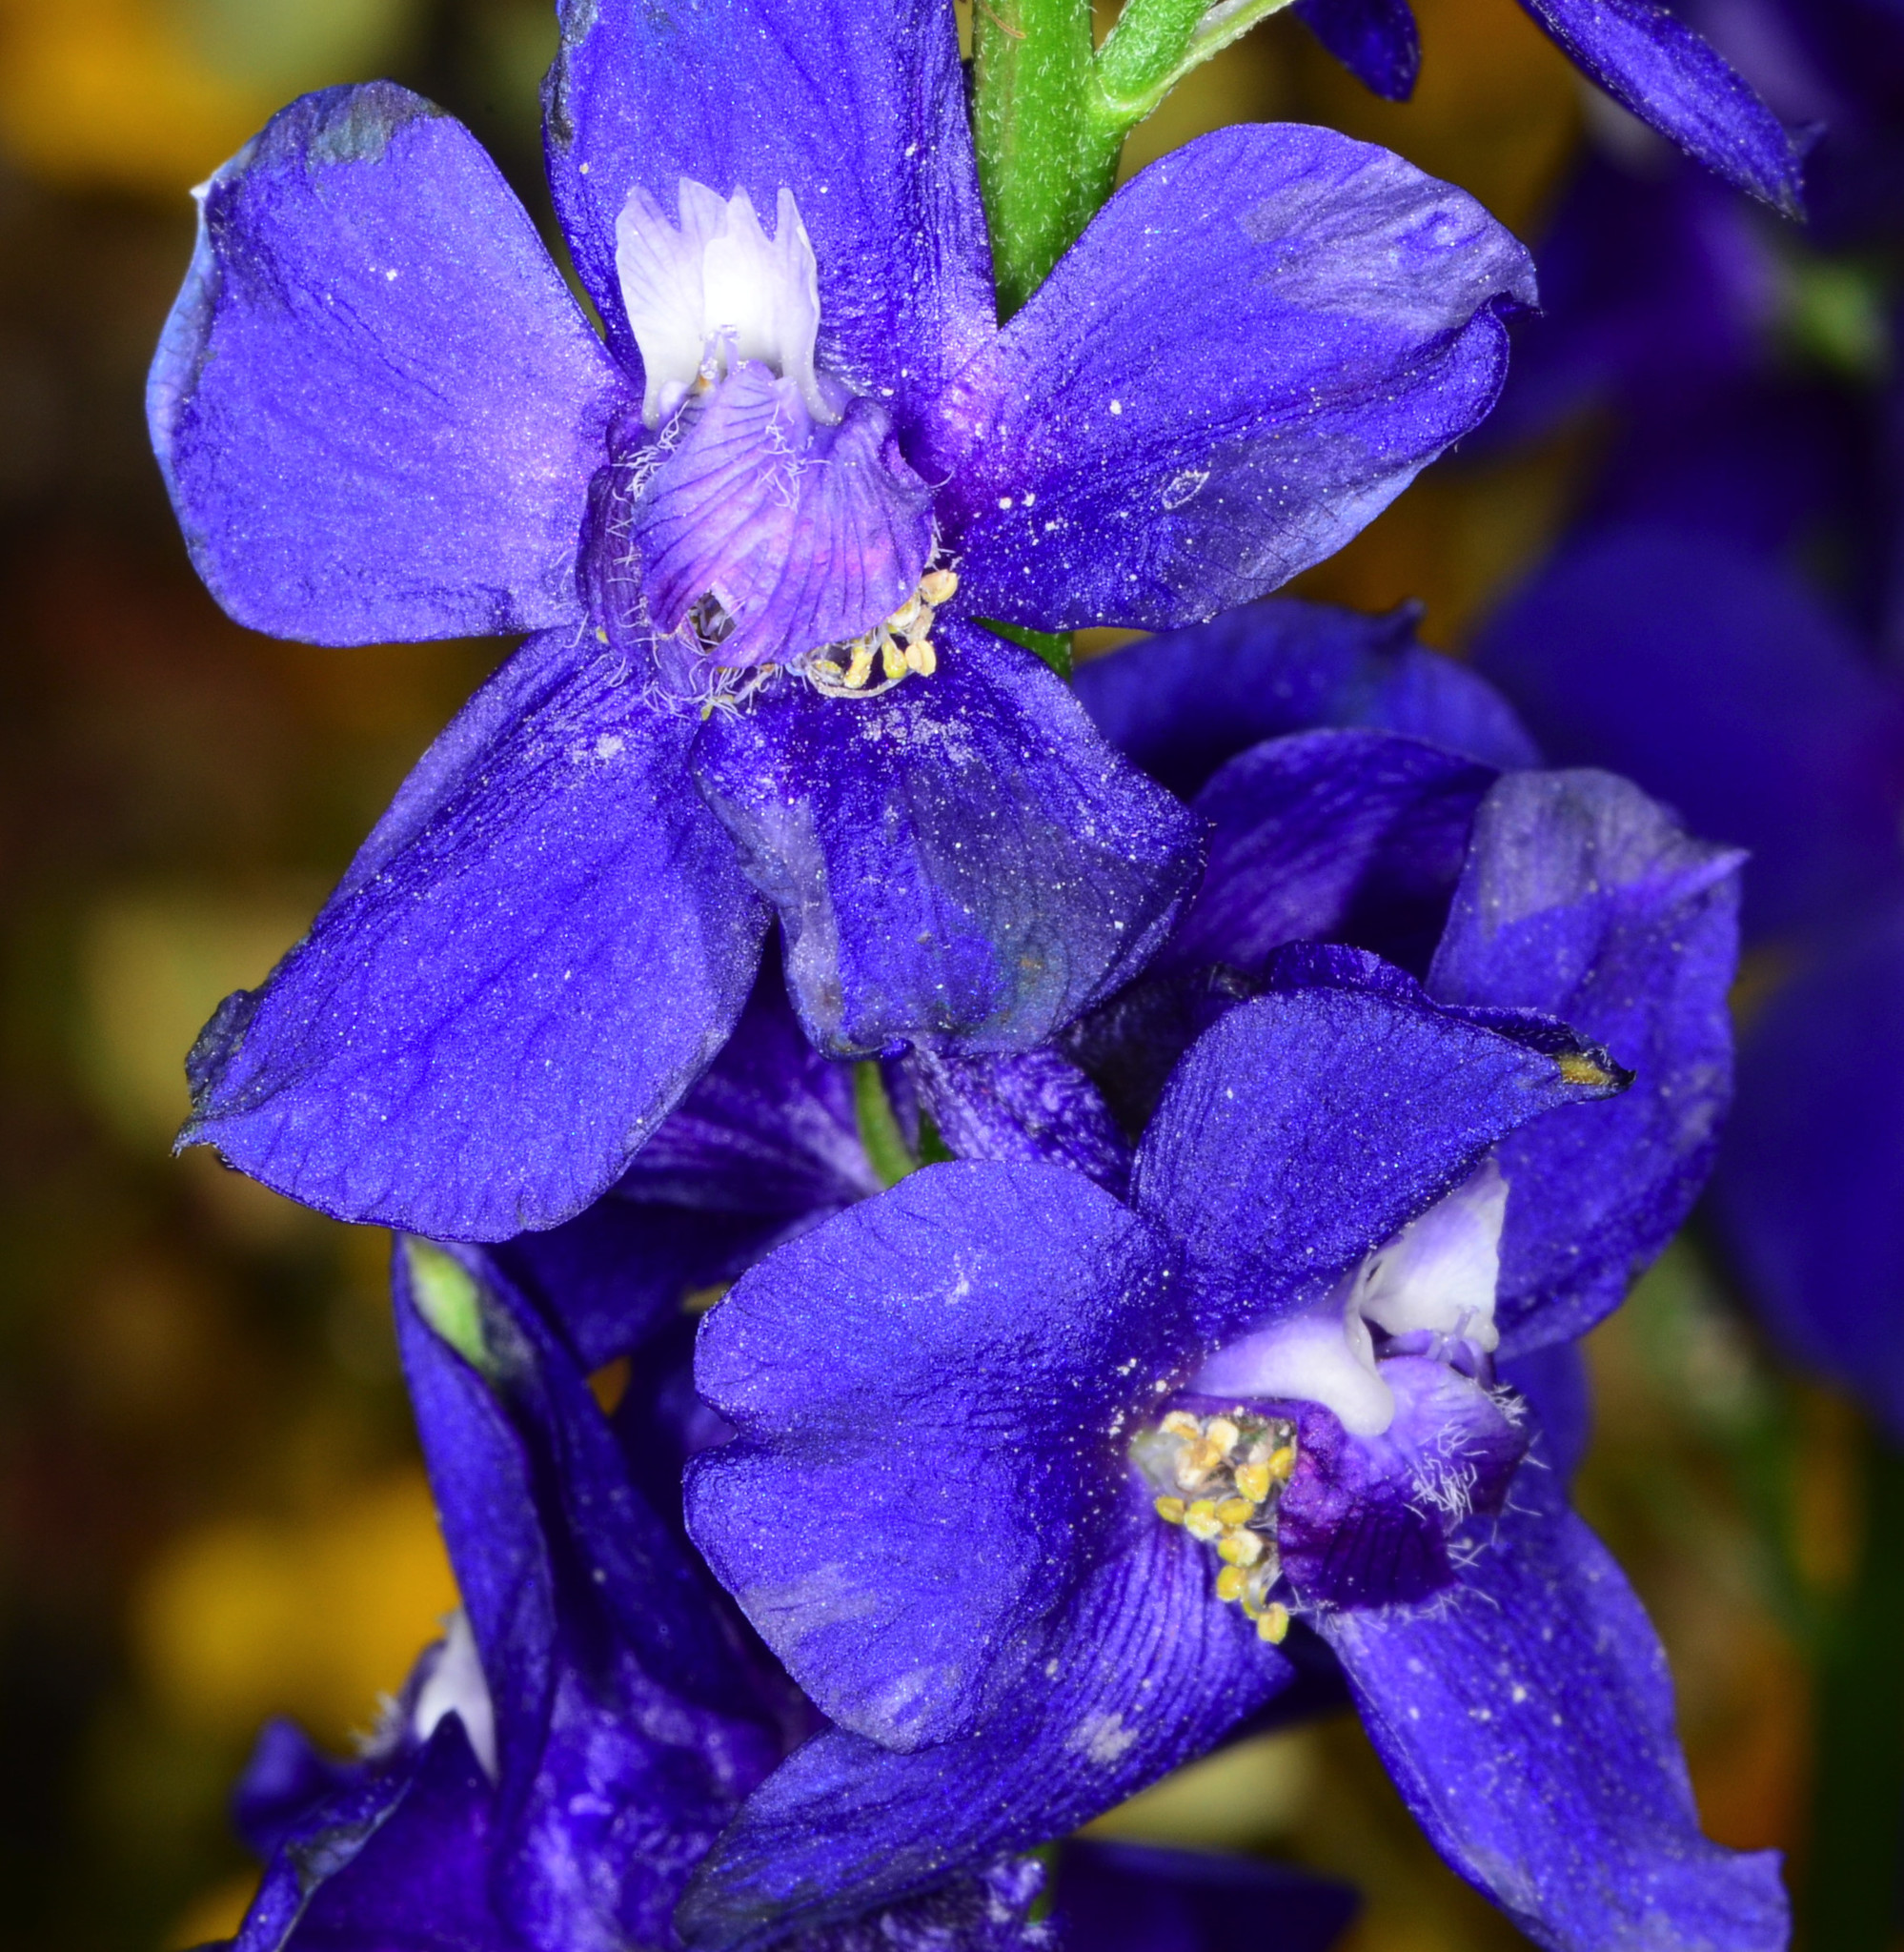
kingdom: Plantae
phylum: Tracheophyta
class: Magnoliopsida
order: Ranunculales
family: Ranunculaceae
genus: Delphinium
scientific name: Delphinium variegatum
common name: Royal larkspur
